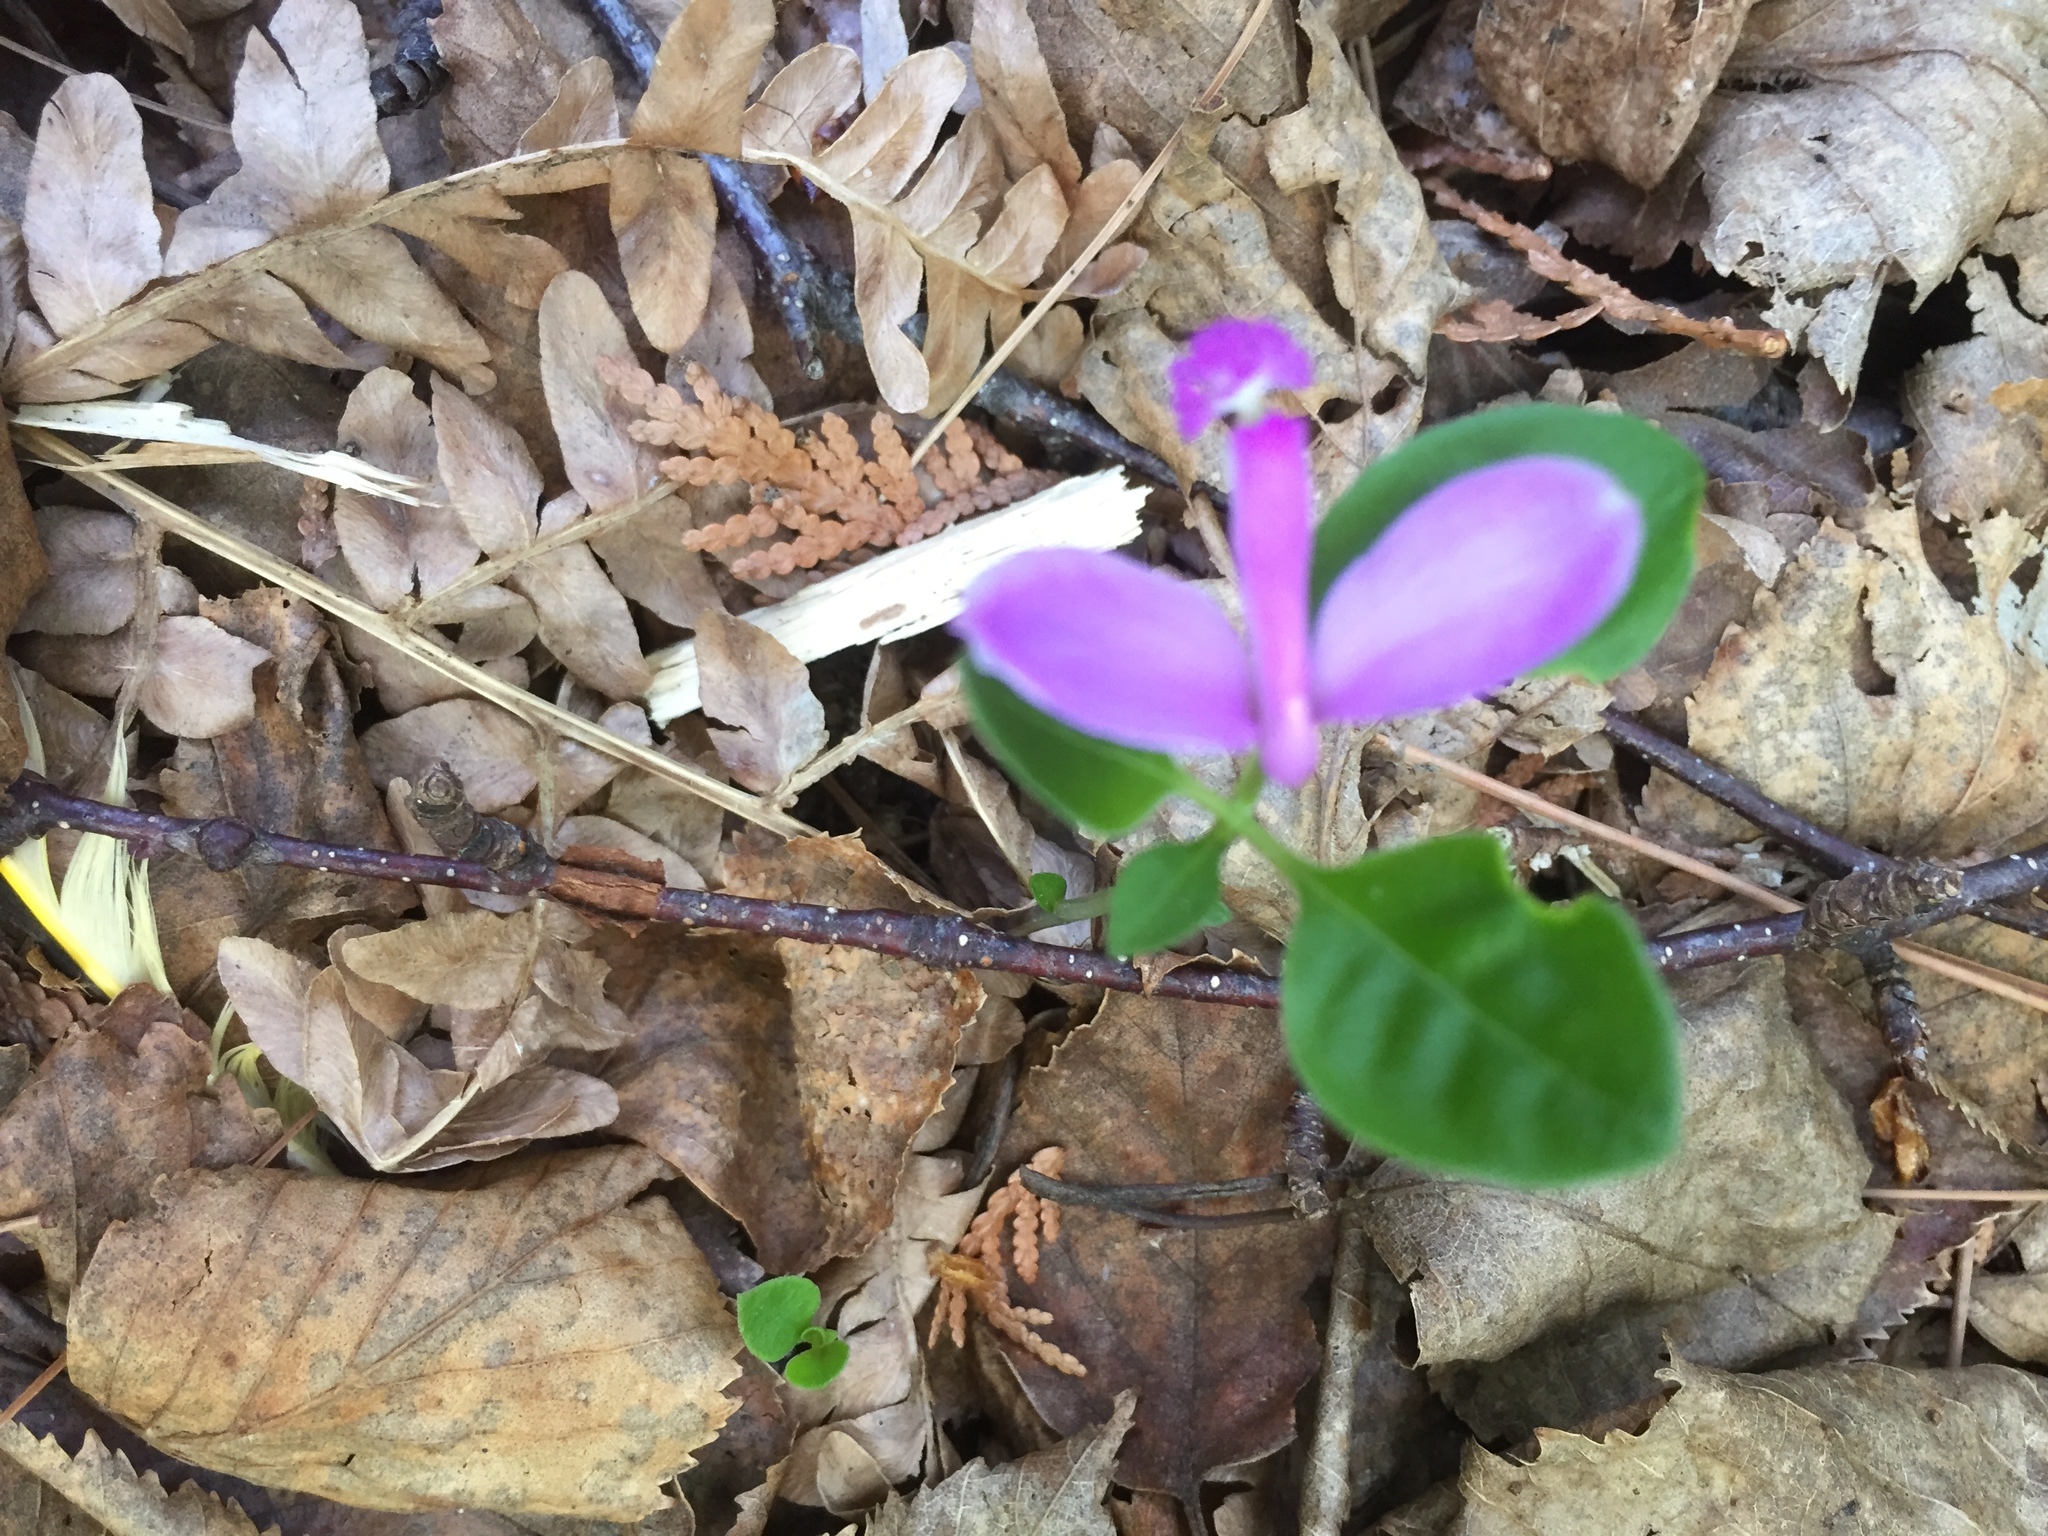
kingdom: Plantae
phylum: Tracheophyta
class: Magnoliopsida
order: Fabales
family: Polygalaceae
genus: Polygaloides
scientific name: Polygaloides paucifolia
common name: Bird-on-the-wing
